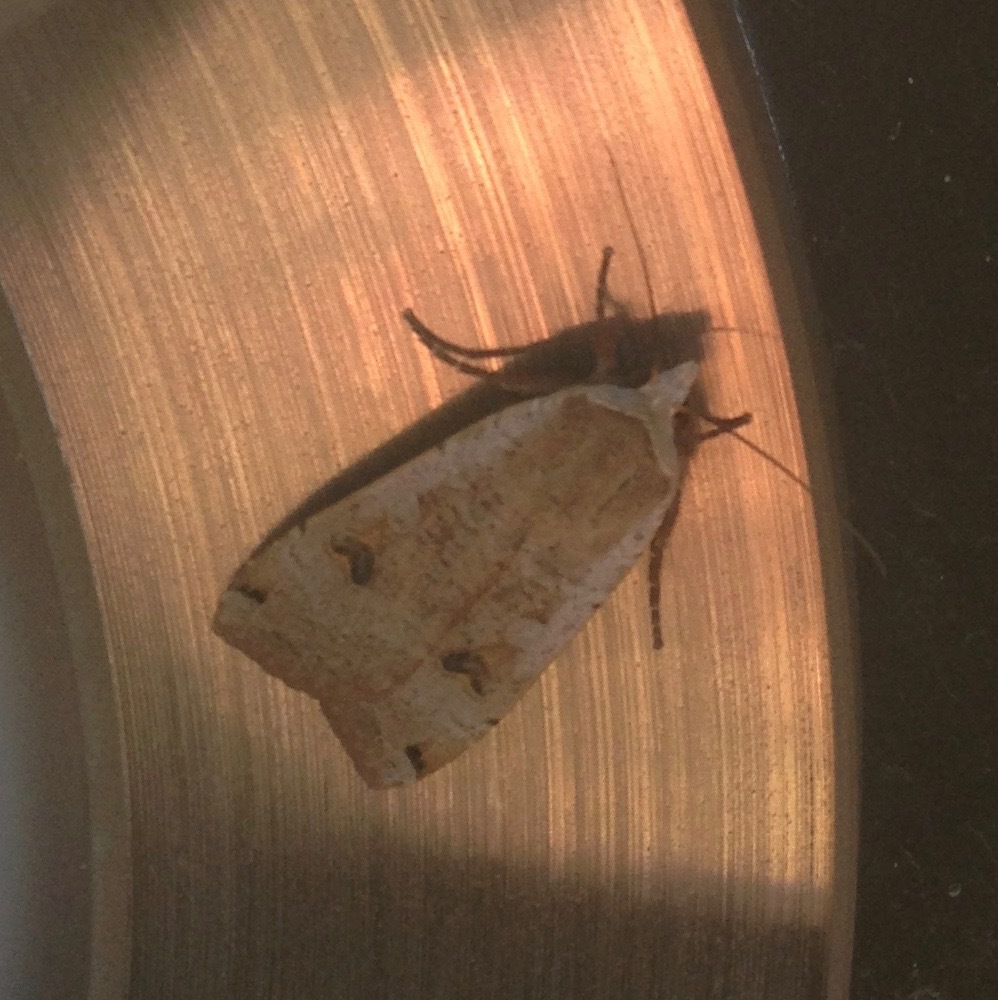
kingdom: Animalia
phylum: Arthropoda
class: Insecta
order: Lepidoptera
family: Noctuidae
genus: Noctua
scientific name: Noctua pronuba
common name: Large yellow underwing
